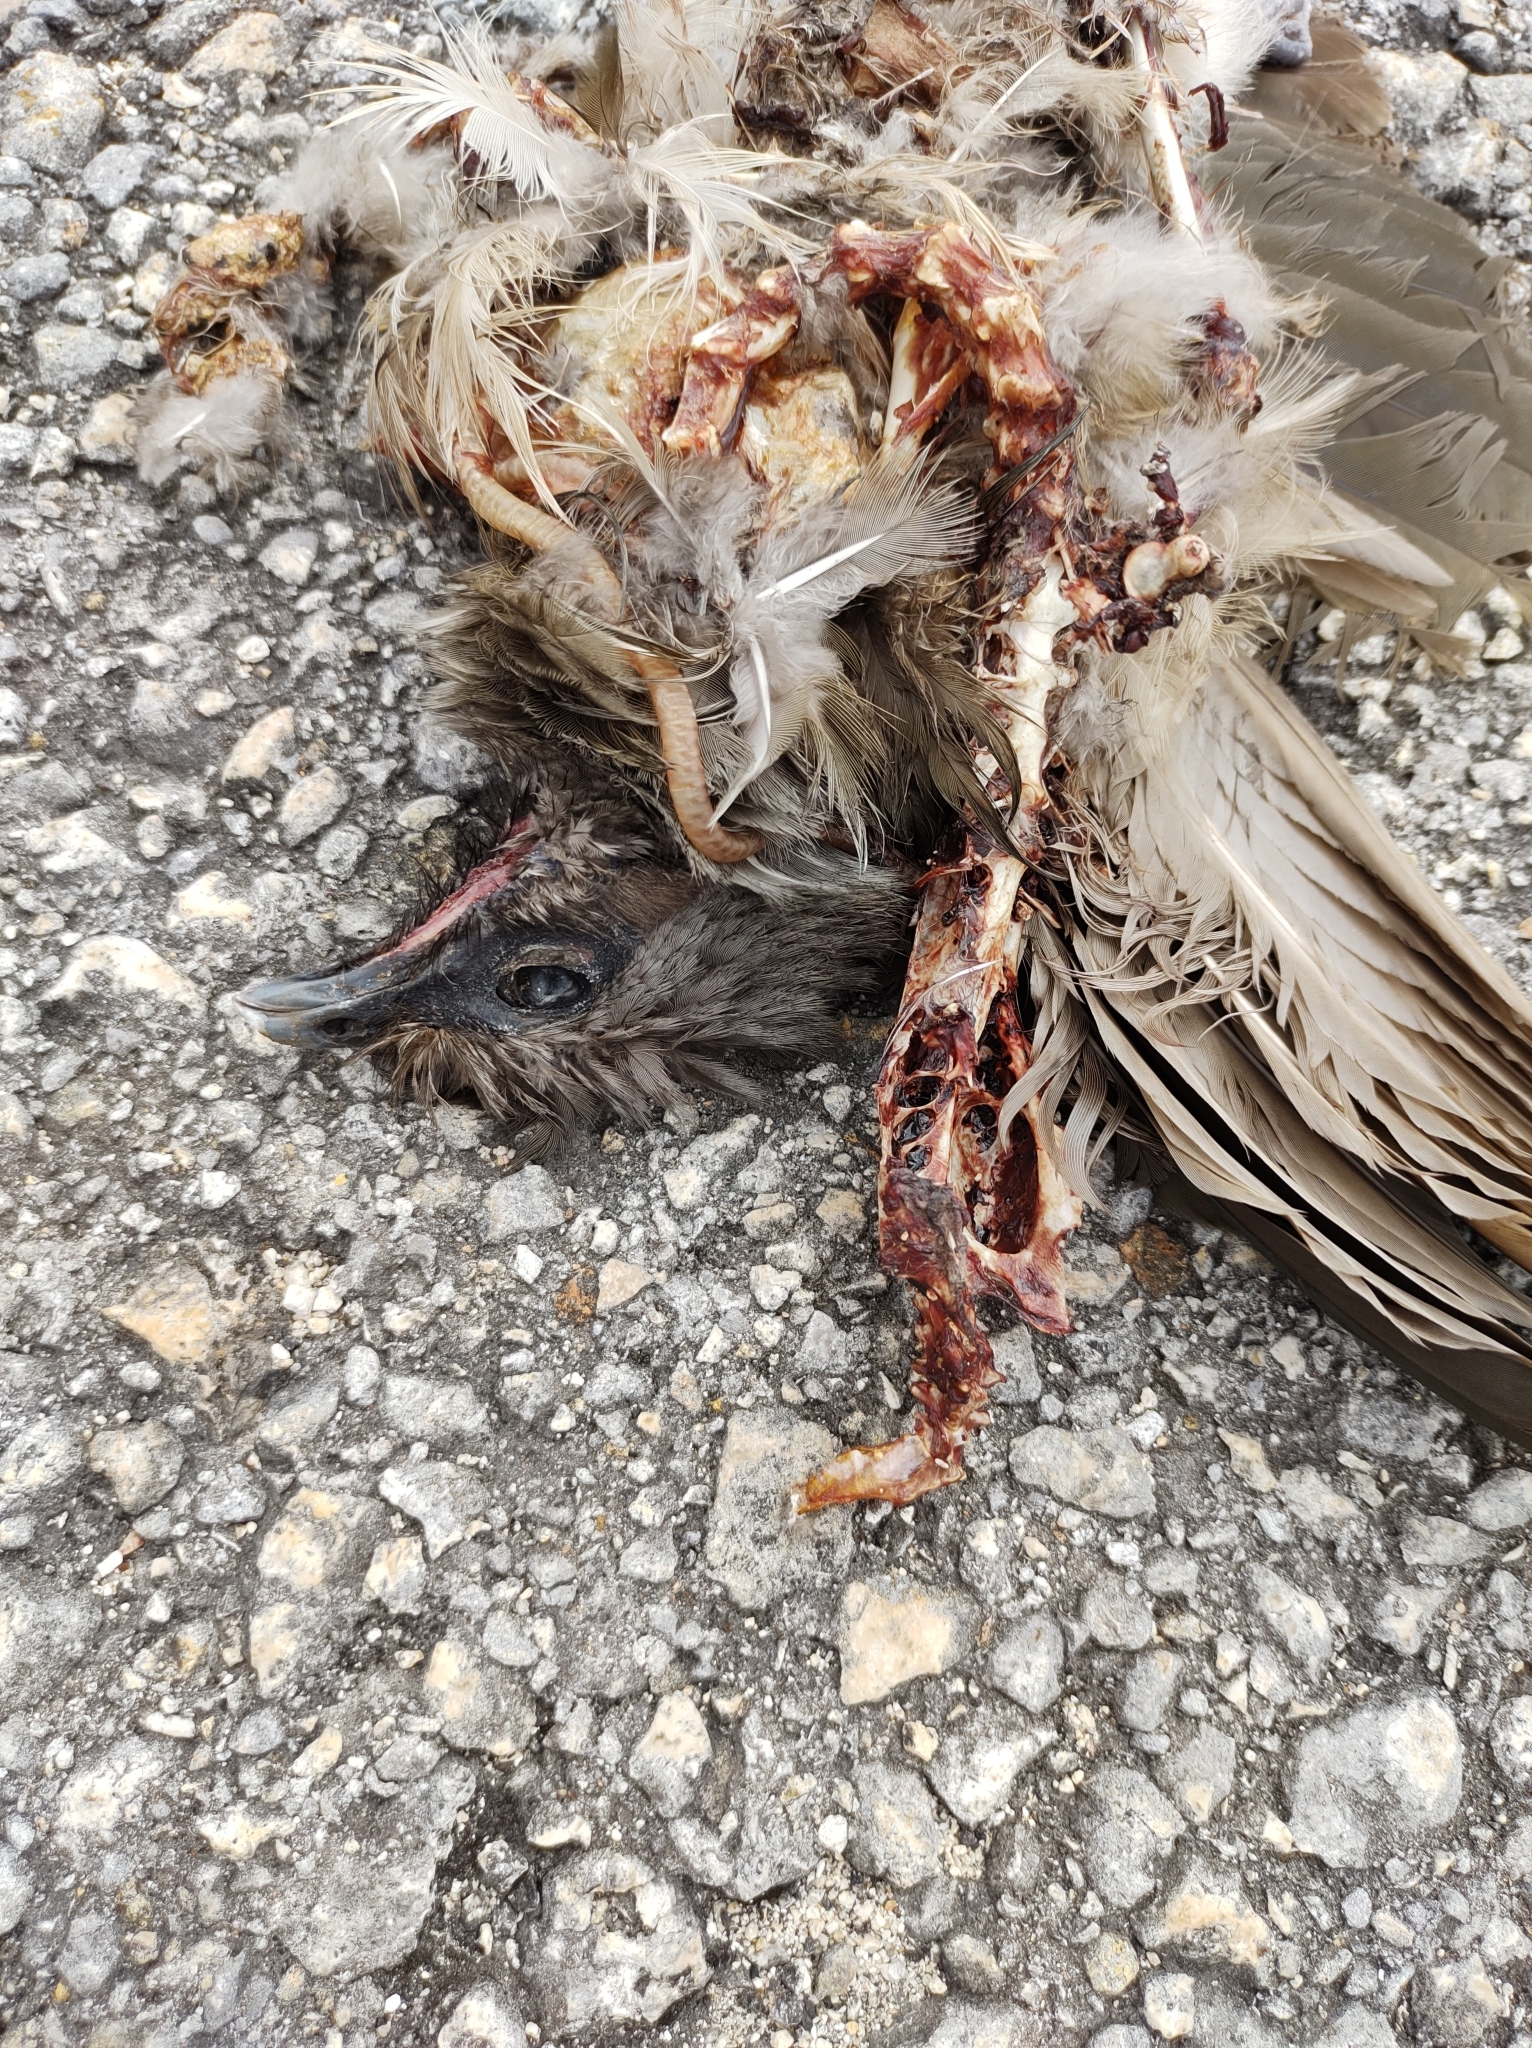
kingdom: Animalia
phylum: Chordata
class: Aves
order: Galliformes
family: Cracidae
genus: Ortalis
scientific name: Ortalis vetula
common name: Plain chachalaca
